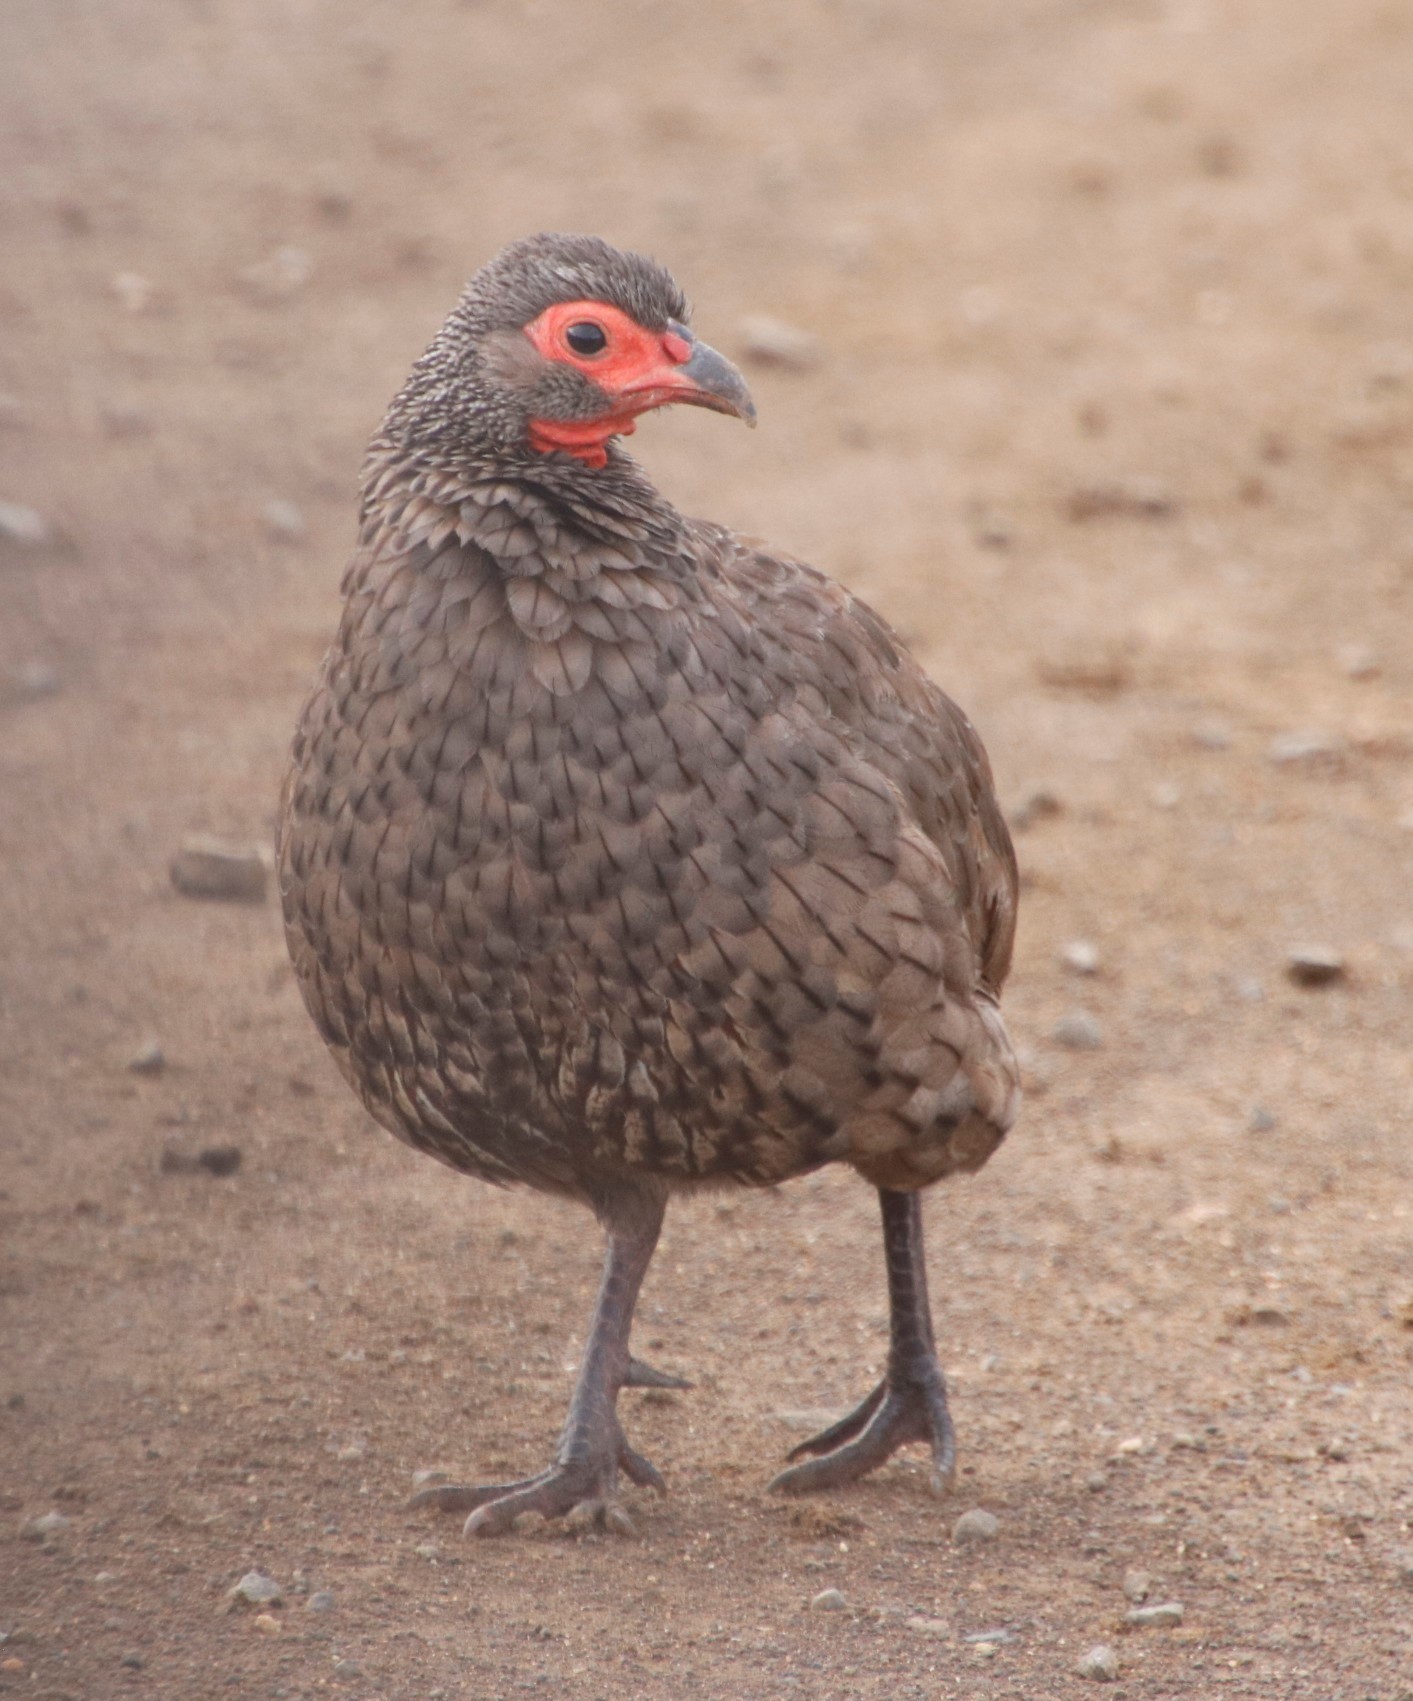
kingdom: Animalia
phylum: Chordata
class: Aves
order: Galliformes
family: Phasianidae
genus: Pternistis
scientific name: Pternistis swainsonii
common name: Swainson's spurfowl
